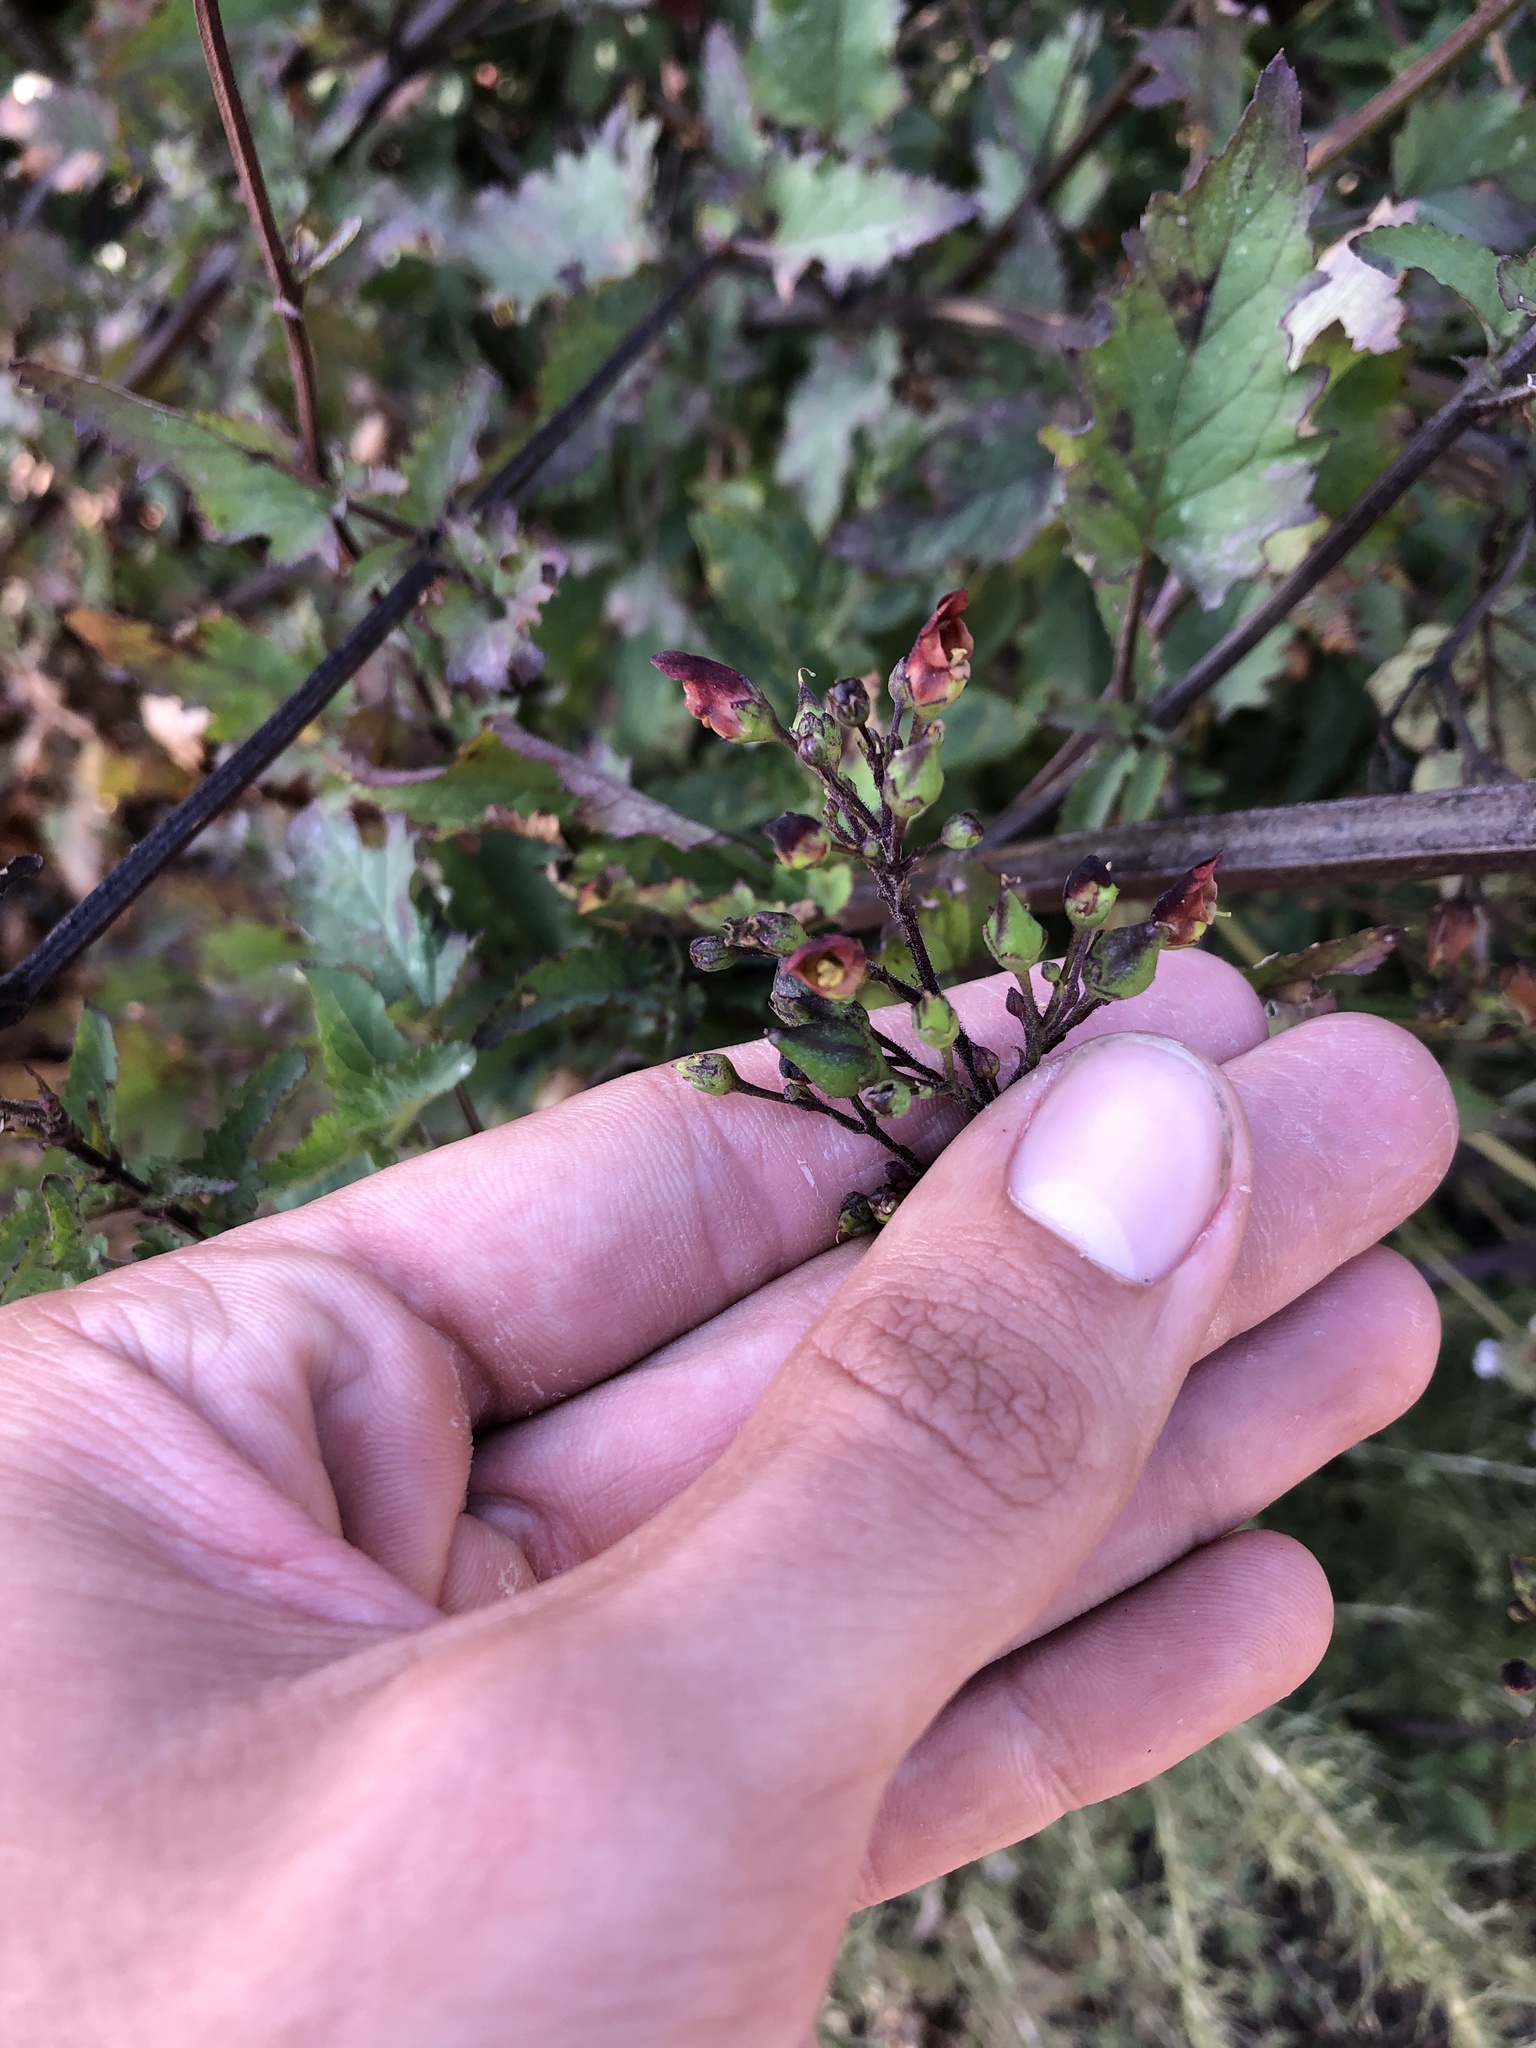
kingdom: Plantae
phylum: Tracheophyta
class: Magnoliopsida
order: Lamiales
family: Scrophulariaceae
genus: Scrophularia
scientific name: Scrophularia californica
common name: California figwort
